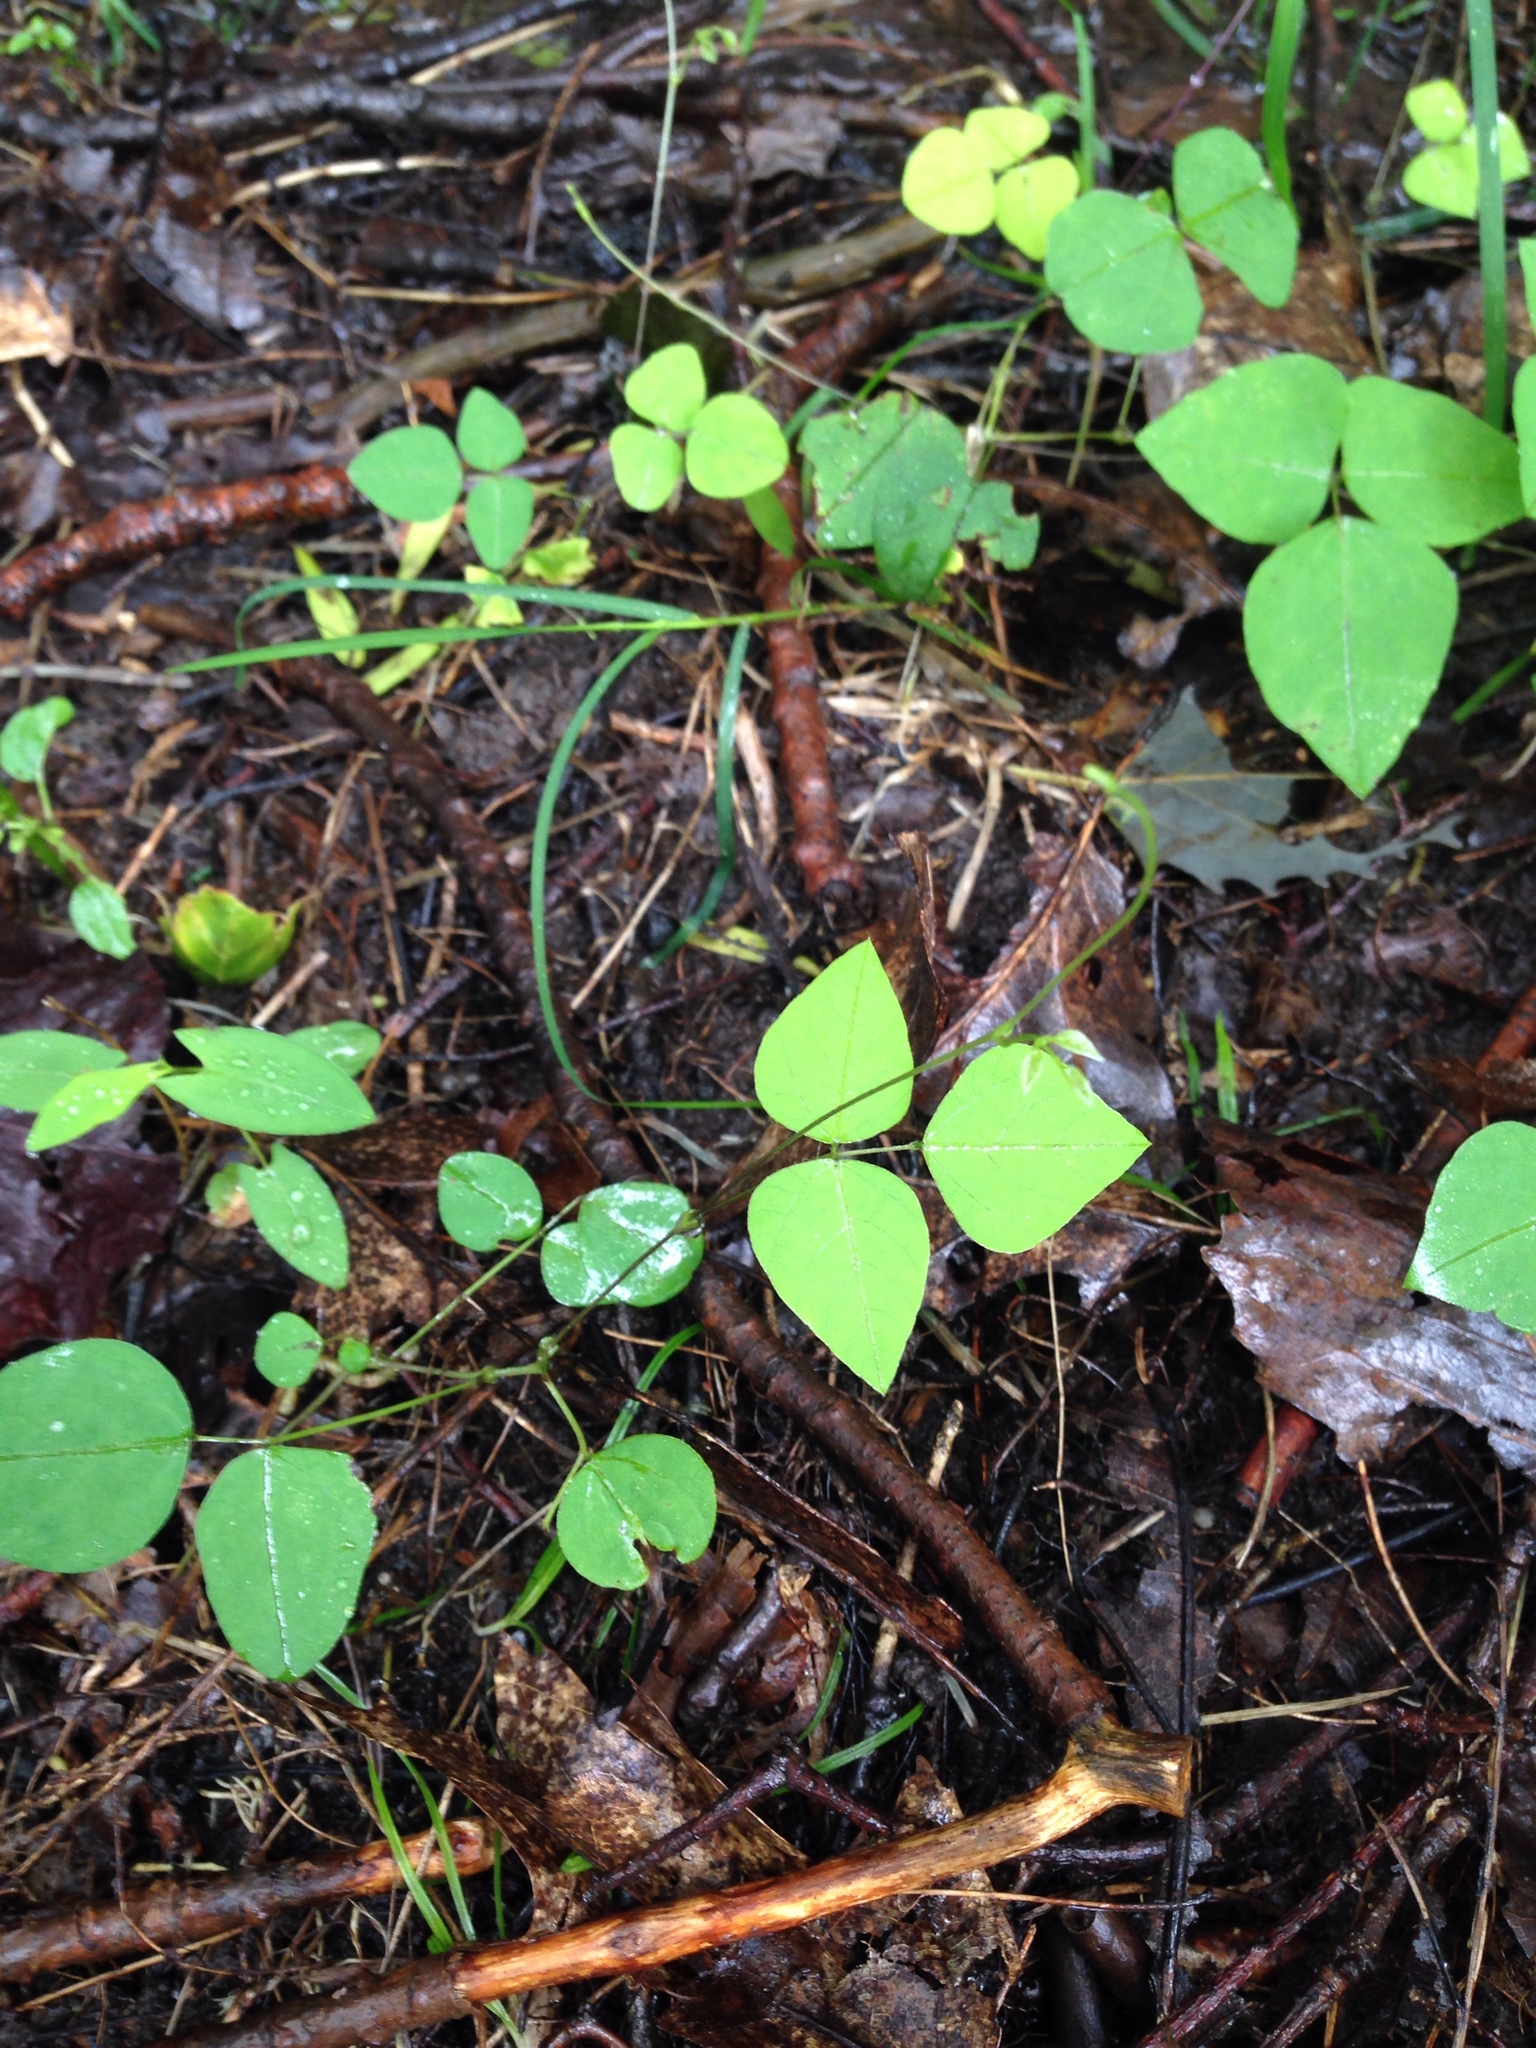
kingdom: Plantae
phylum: Tracheophyta
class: Magnoliopsida
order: Fabales
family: Fabaceae
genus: Amphicarpaea
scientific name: Amphicarpaea bracteata
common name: American hog peanut
